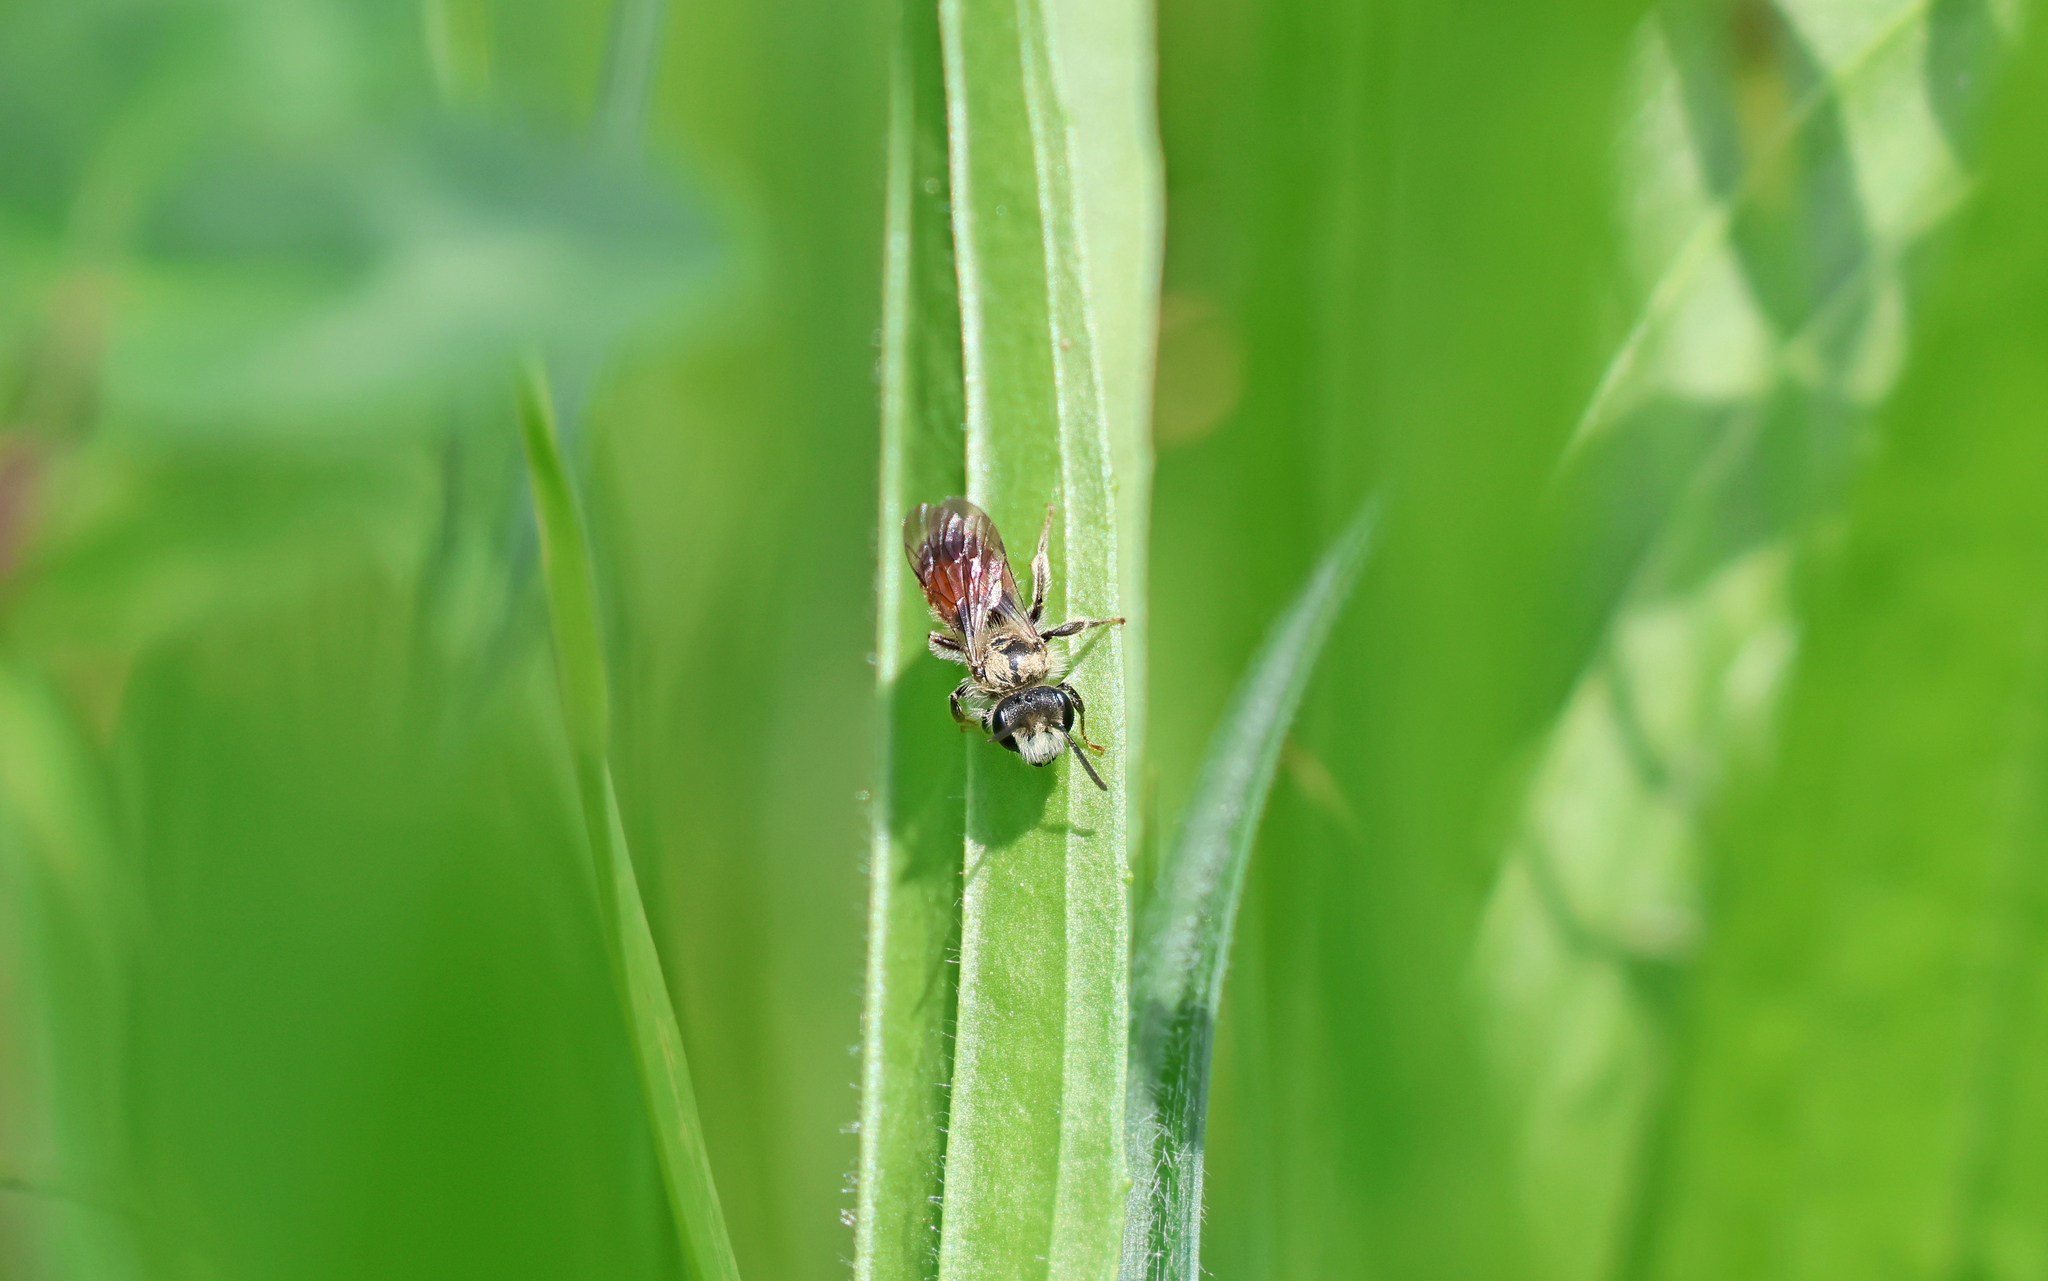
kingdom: Animalia
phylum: Arthropoda
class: Insecta
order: Hymenoptera
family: Andrenidae
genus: Andrena
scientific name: Andrena labiata
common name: Red-girdled mining bee
